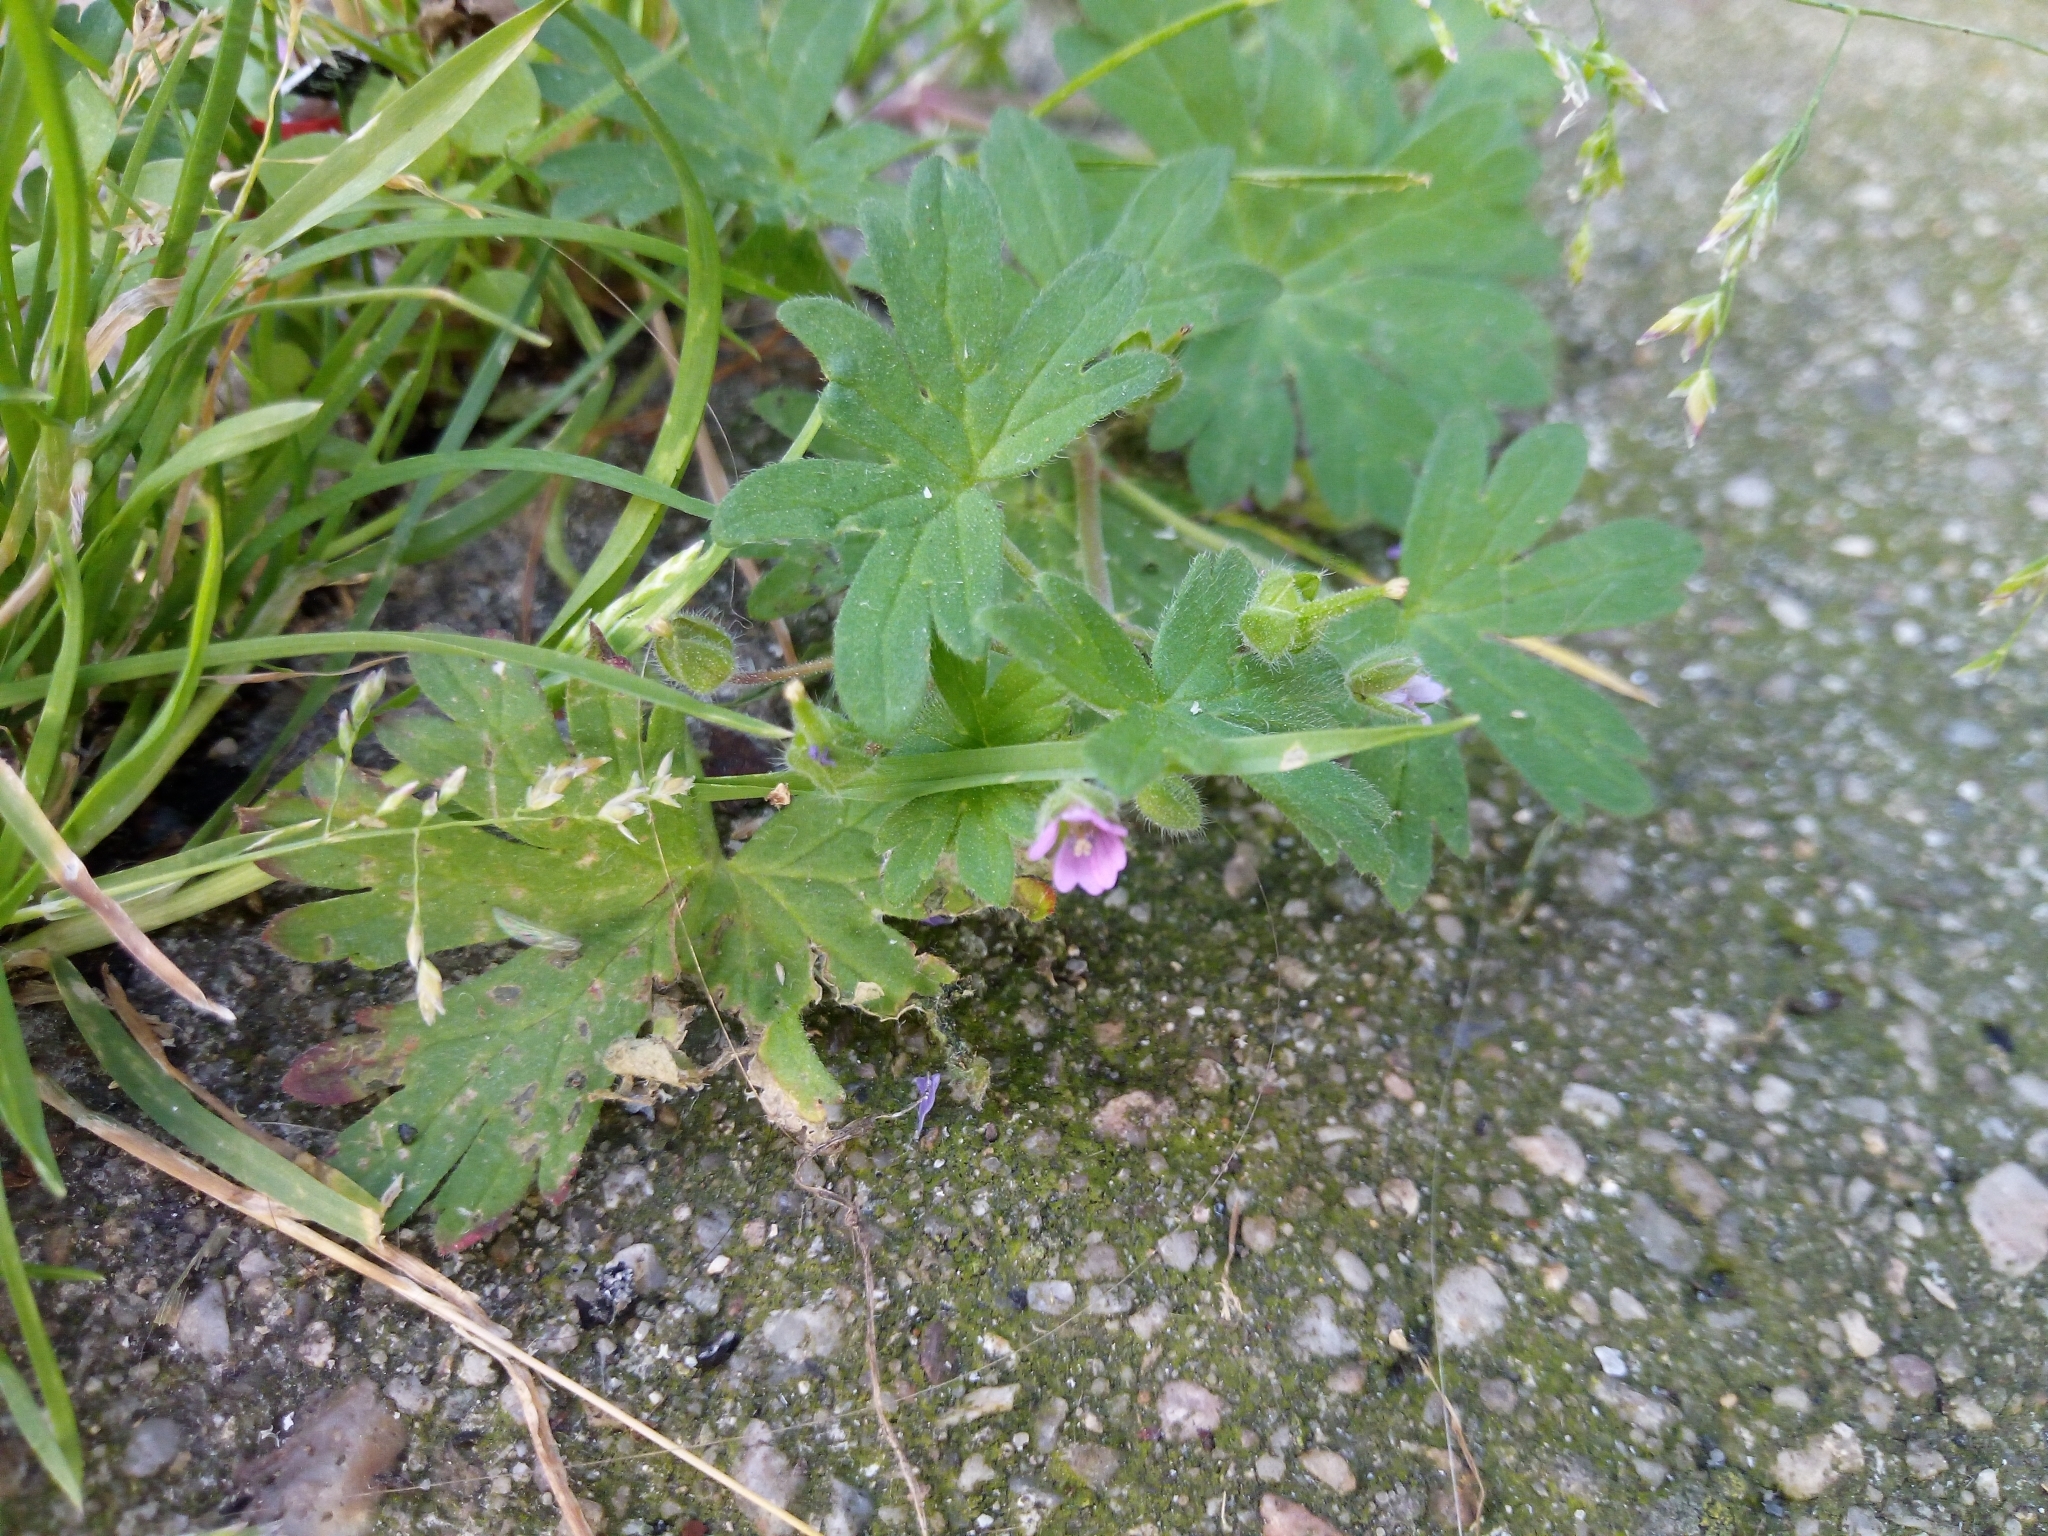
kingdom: Plantae
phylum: Tracheophyta
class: Magnoliopsida
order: Geraniales
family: Geraniaceae
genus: Geranium
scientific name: Geranium pusillum
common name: Small geranium
